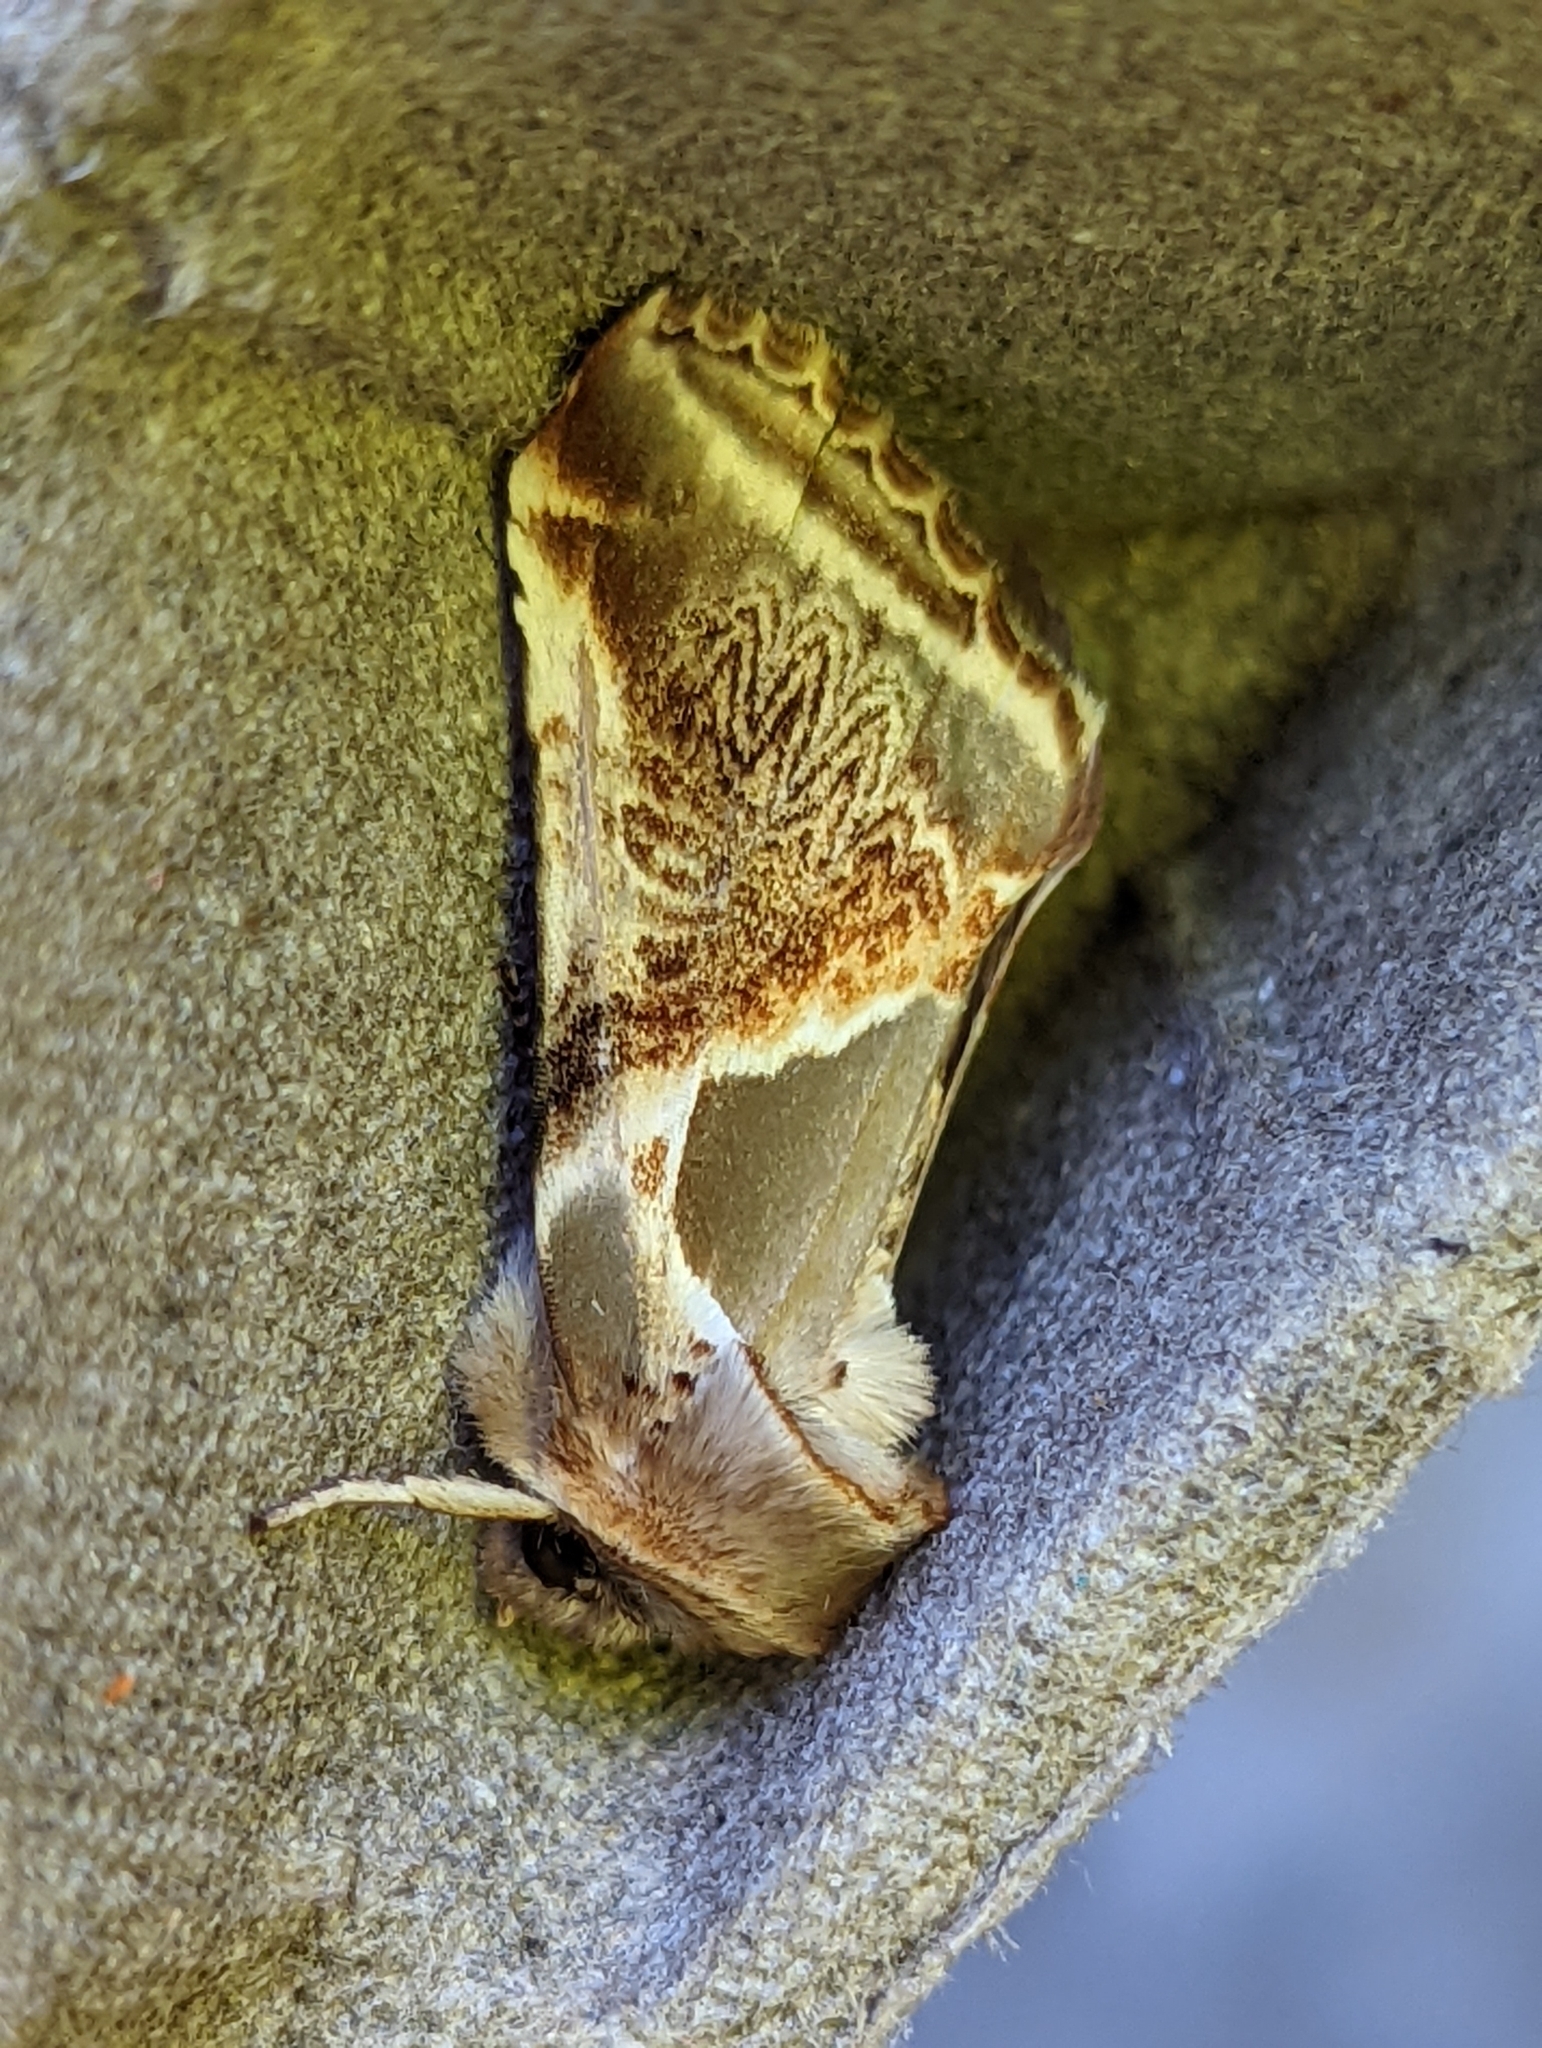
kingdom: Animalia
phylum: Arthropoda
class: Insecta
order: Lepidoptera
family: Drepanidae
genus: Habrosyne
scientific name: Habrosyne pyritoides
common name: Buff arches
